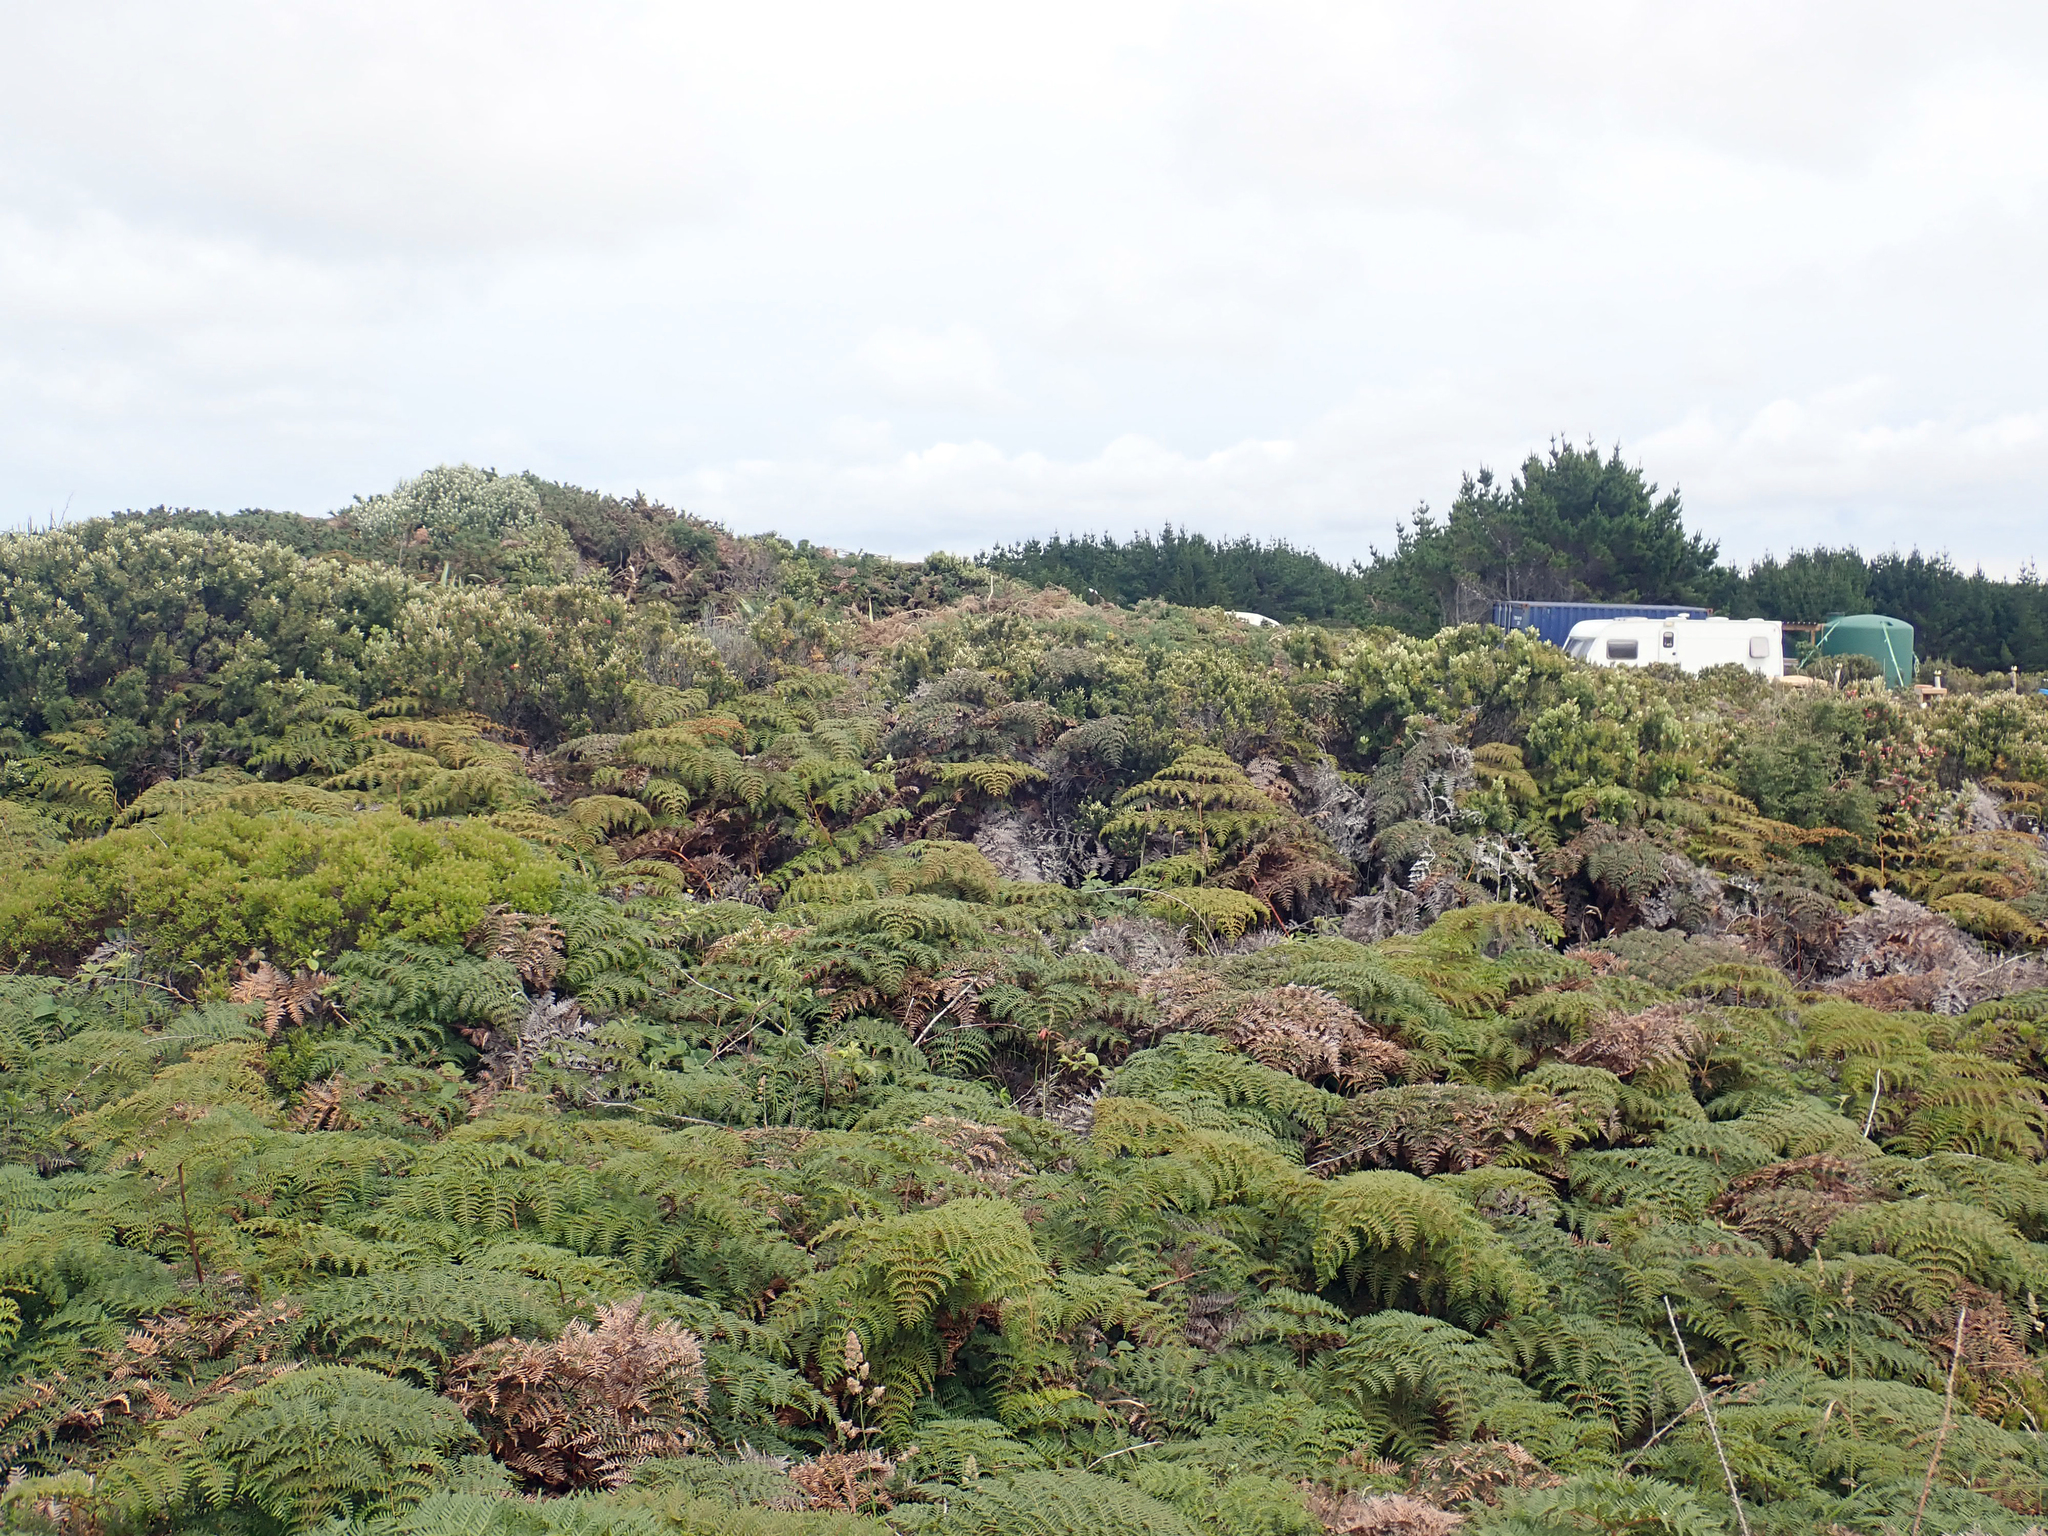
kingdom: Plantae
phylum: Tracheophyta
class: Polypodiopsida
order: Polypodiales
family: Dennstaedtiaceae
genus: Pteridium
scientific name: Pteridium esculentum
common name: Bracken fern
